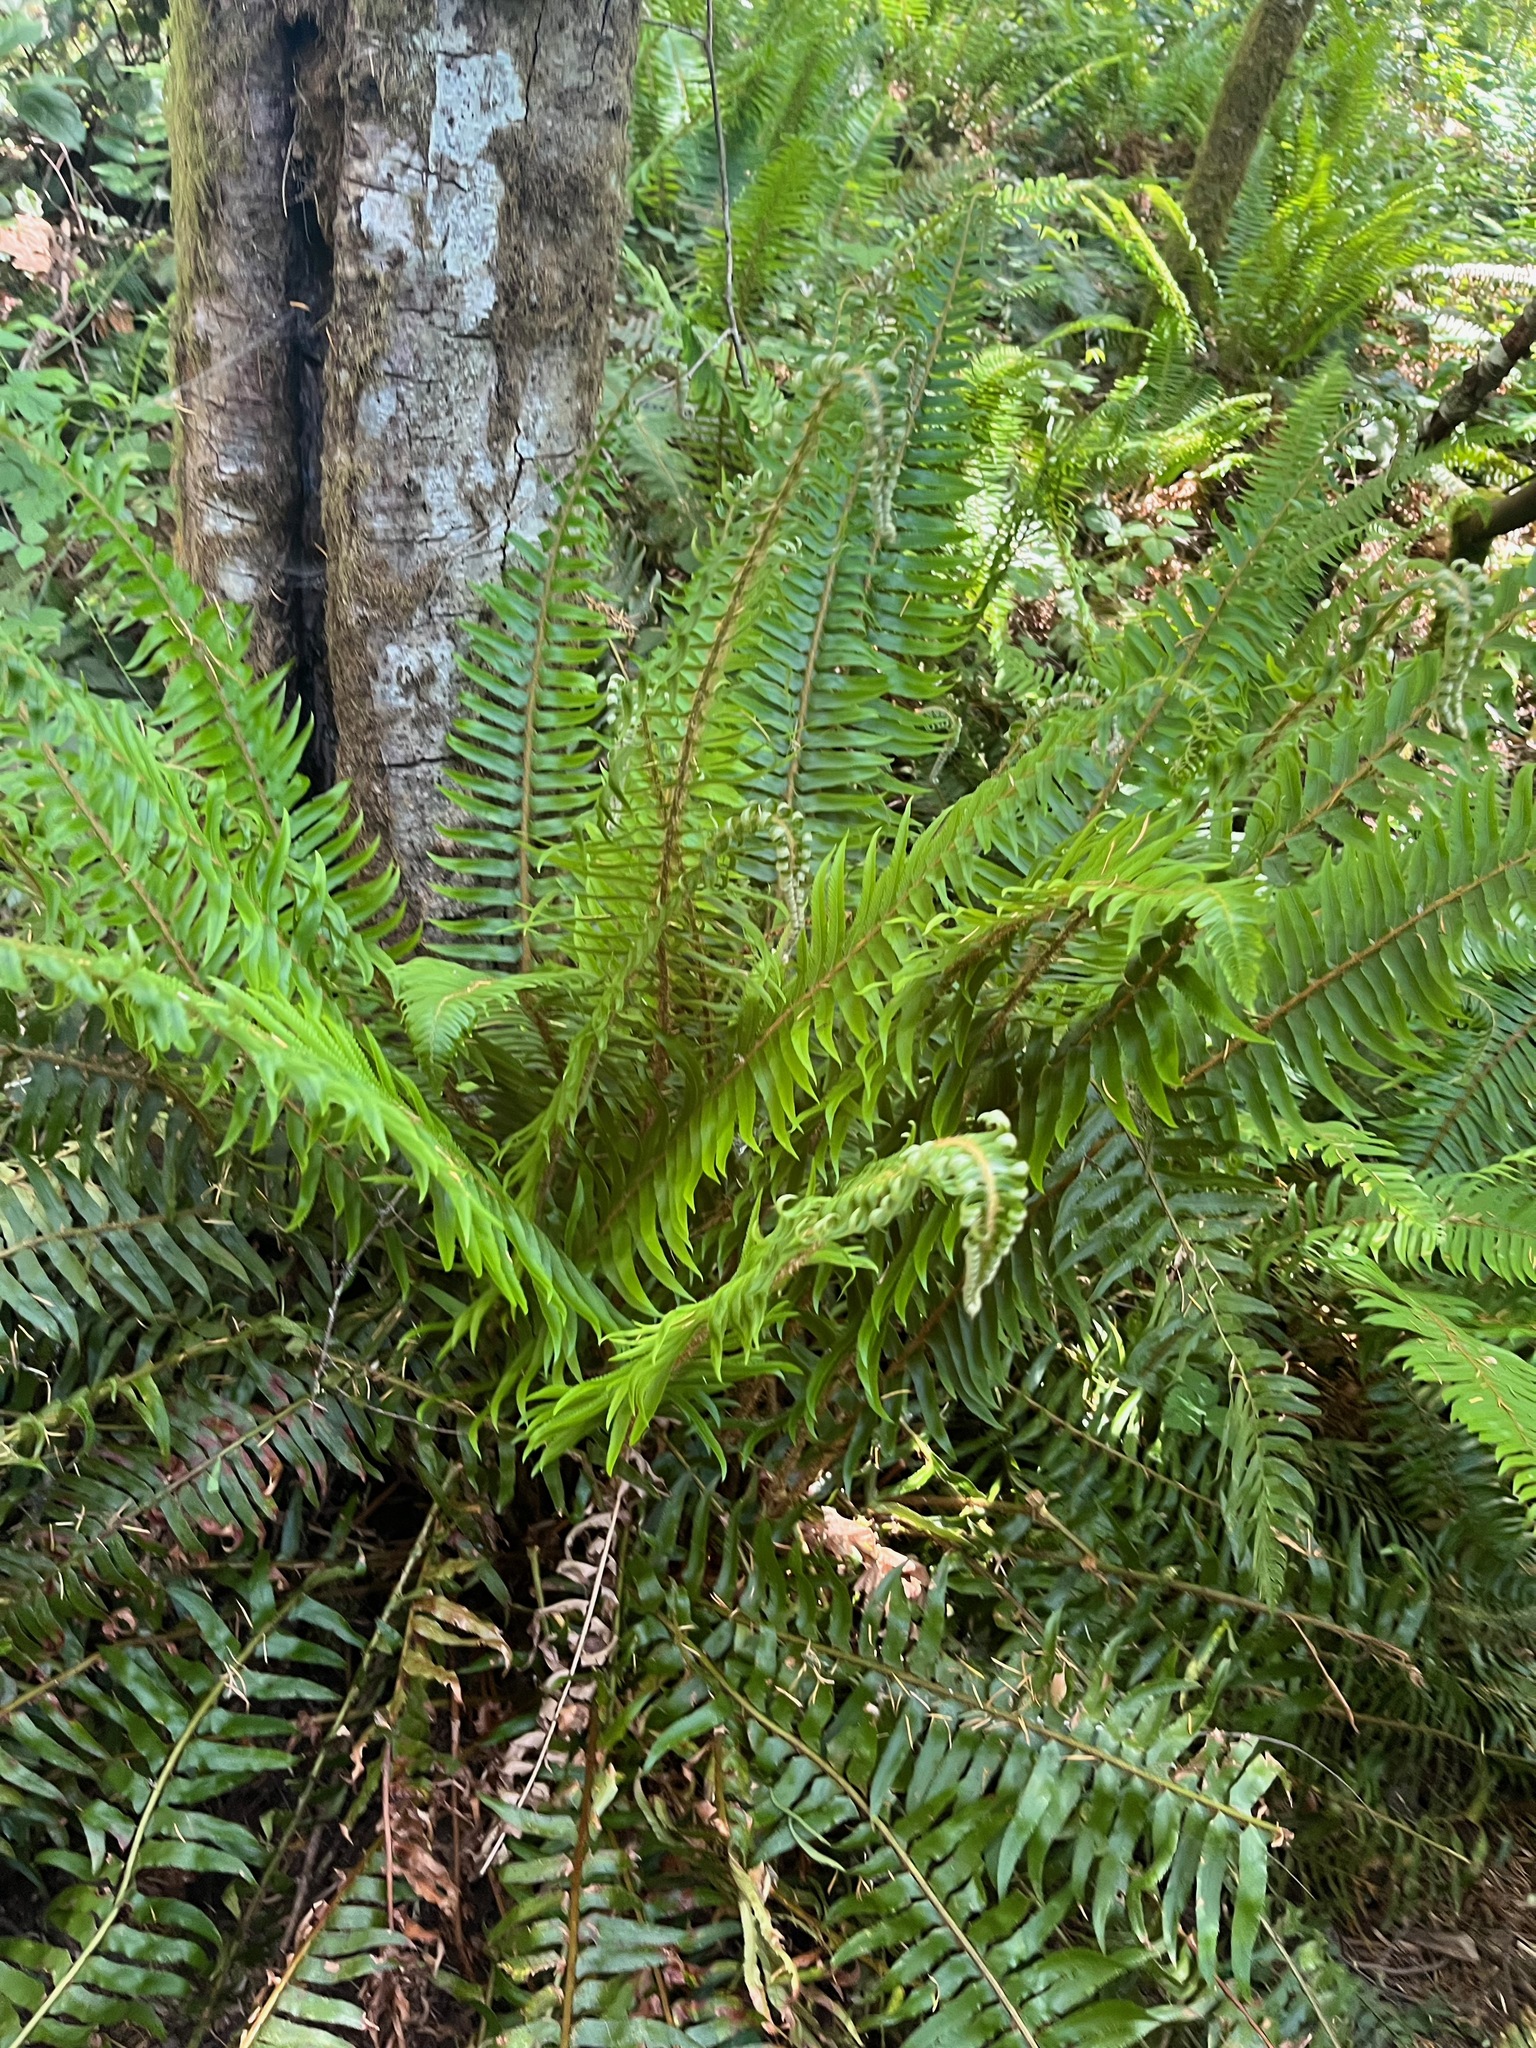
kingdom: Plantae
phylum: Tracheophyta
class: Polypodiopsida
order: Polypodiales
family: Dryopteridaceae
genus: Polystichum
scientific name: Polystichum munitum
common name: Western sword-fern
